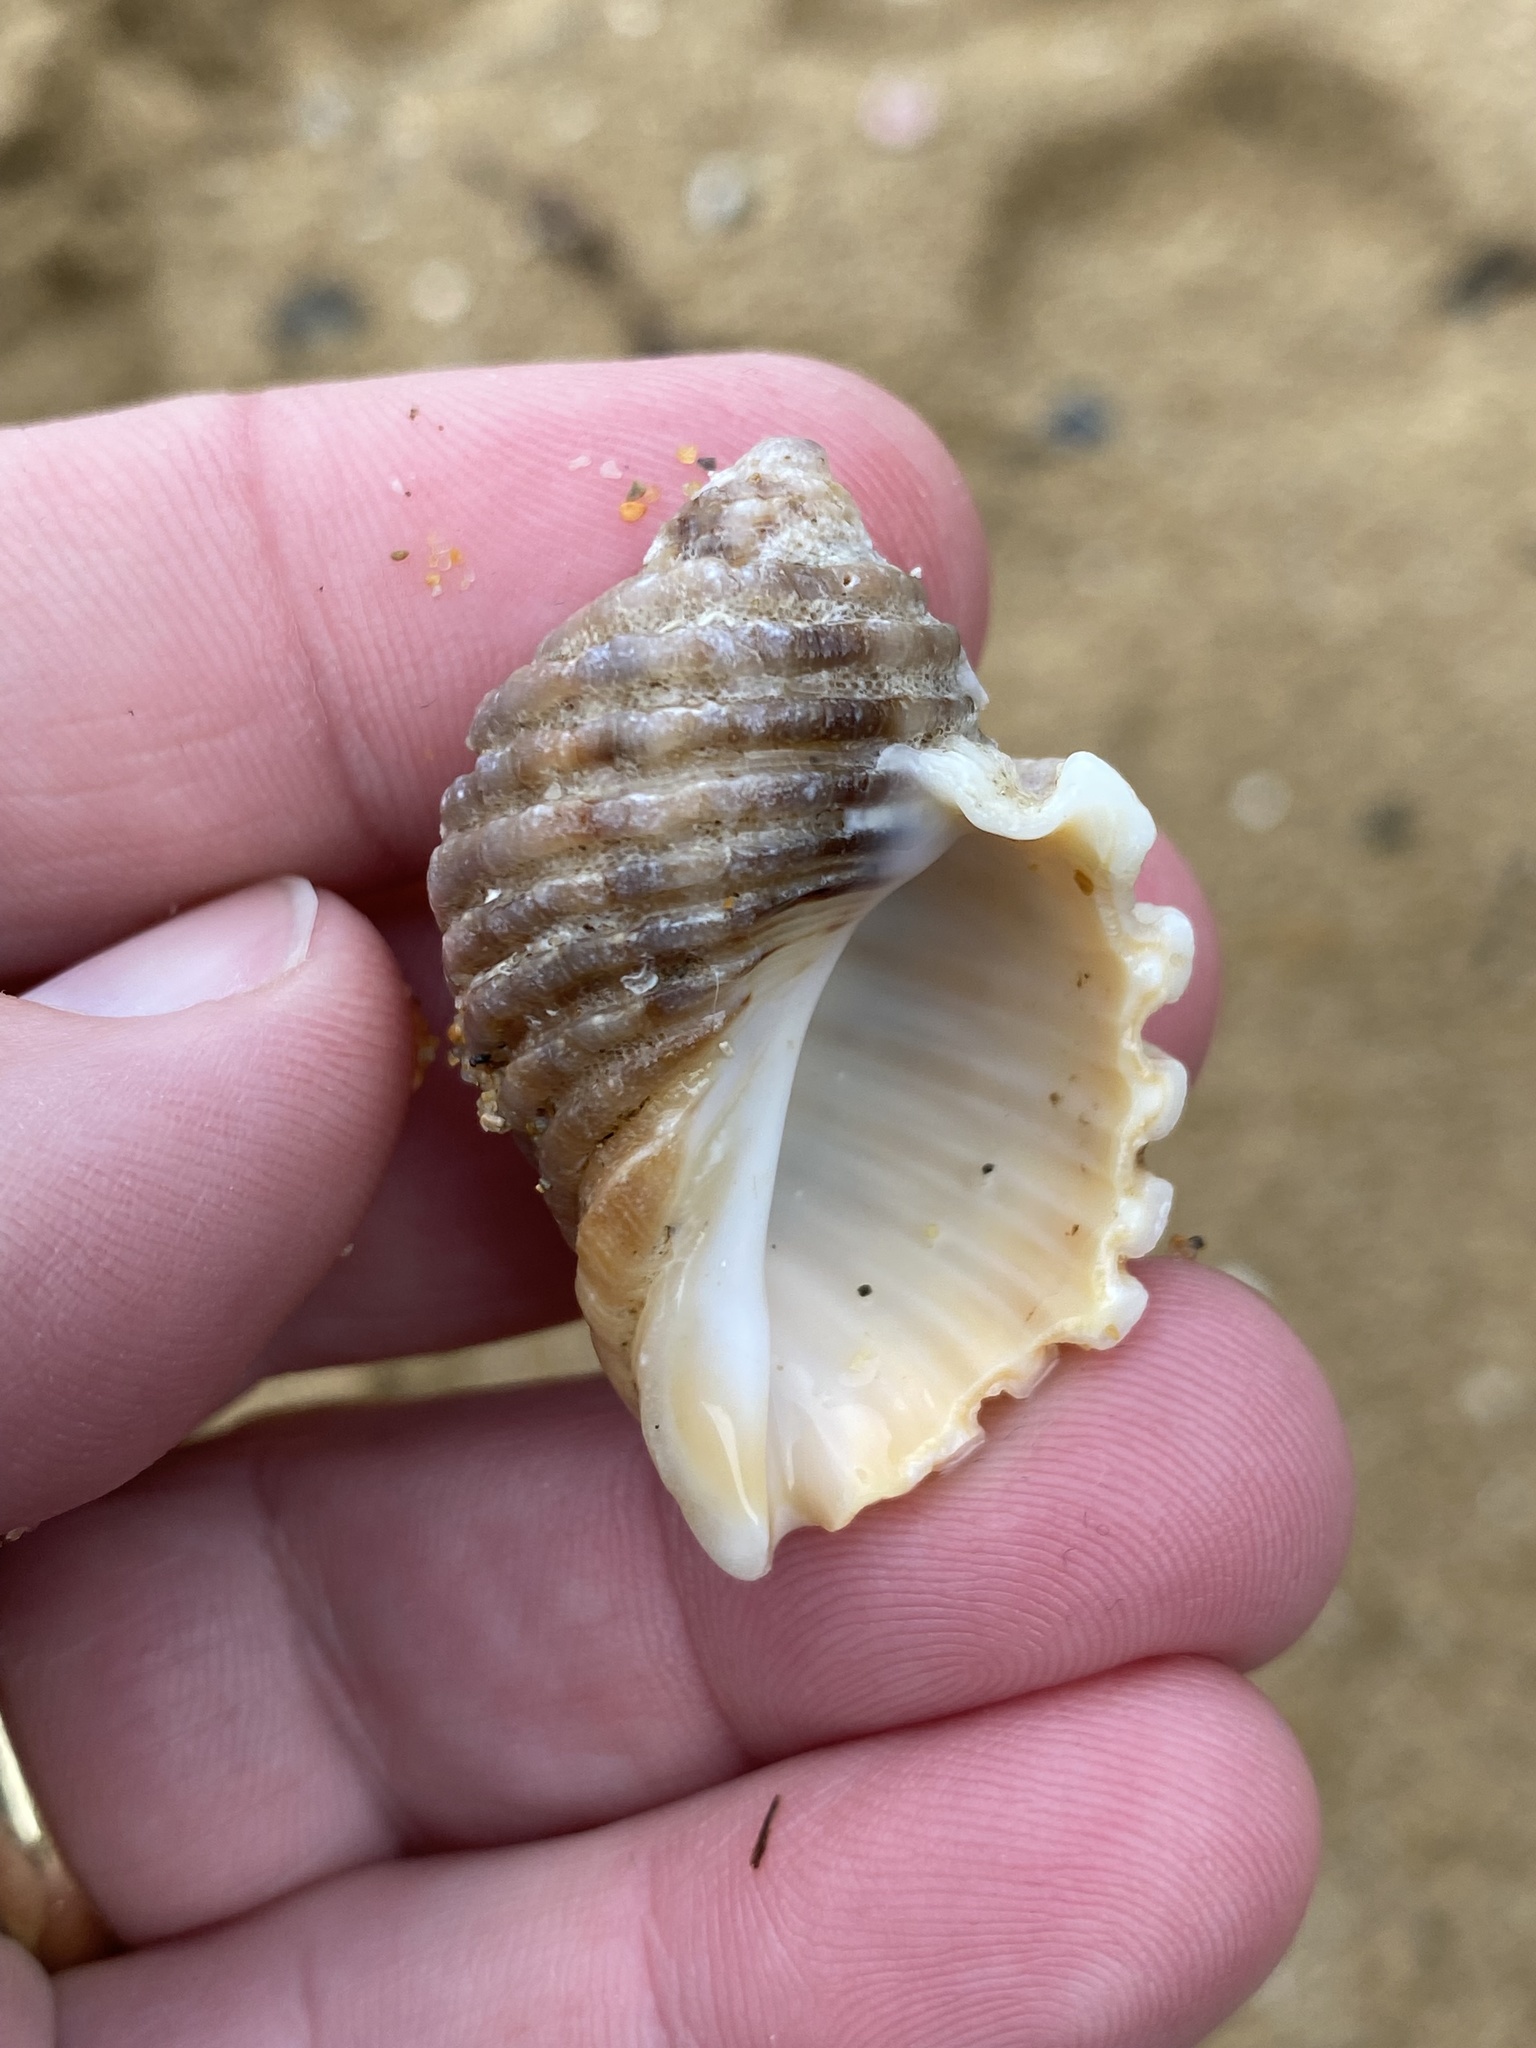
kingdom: Animalia
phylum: Mollusca
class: Gastropoda
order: Neogastropoda
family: Muricidae
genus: Dicathais
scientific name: Dicathais orbita
